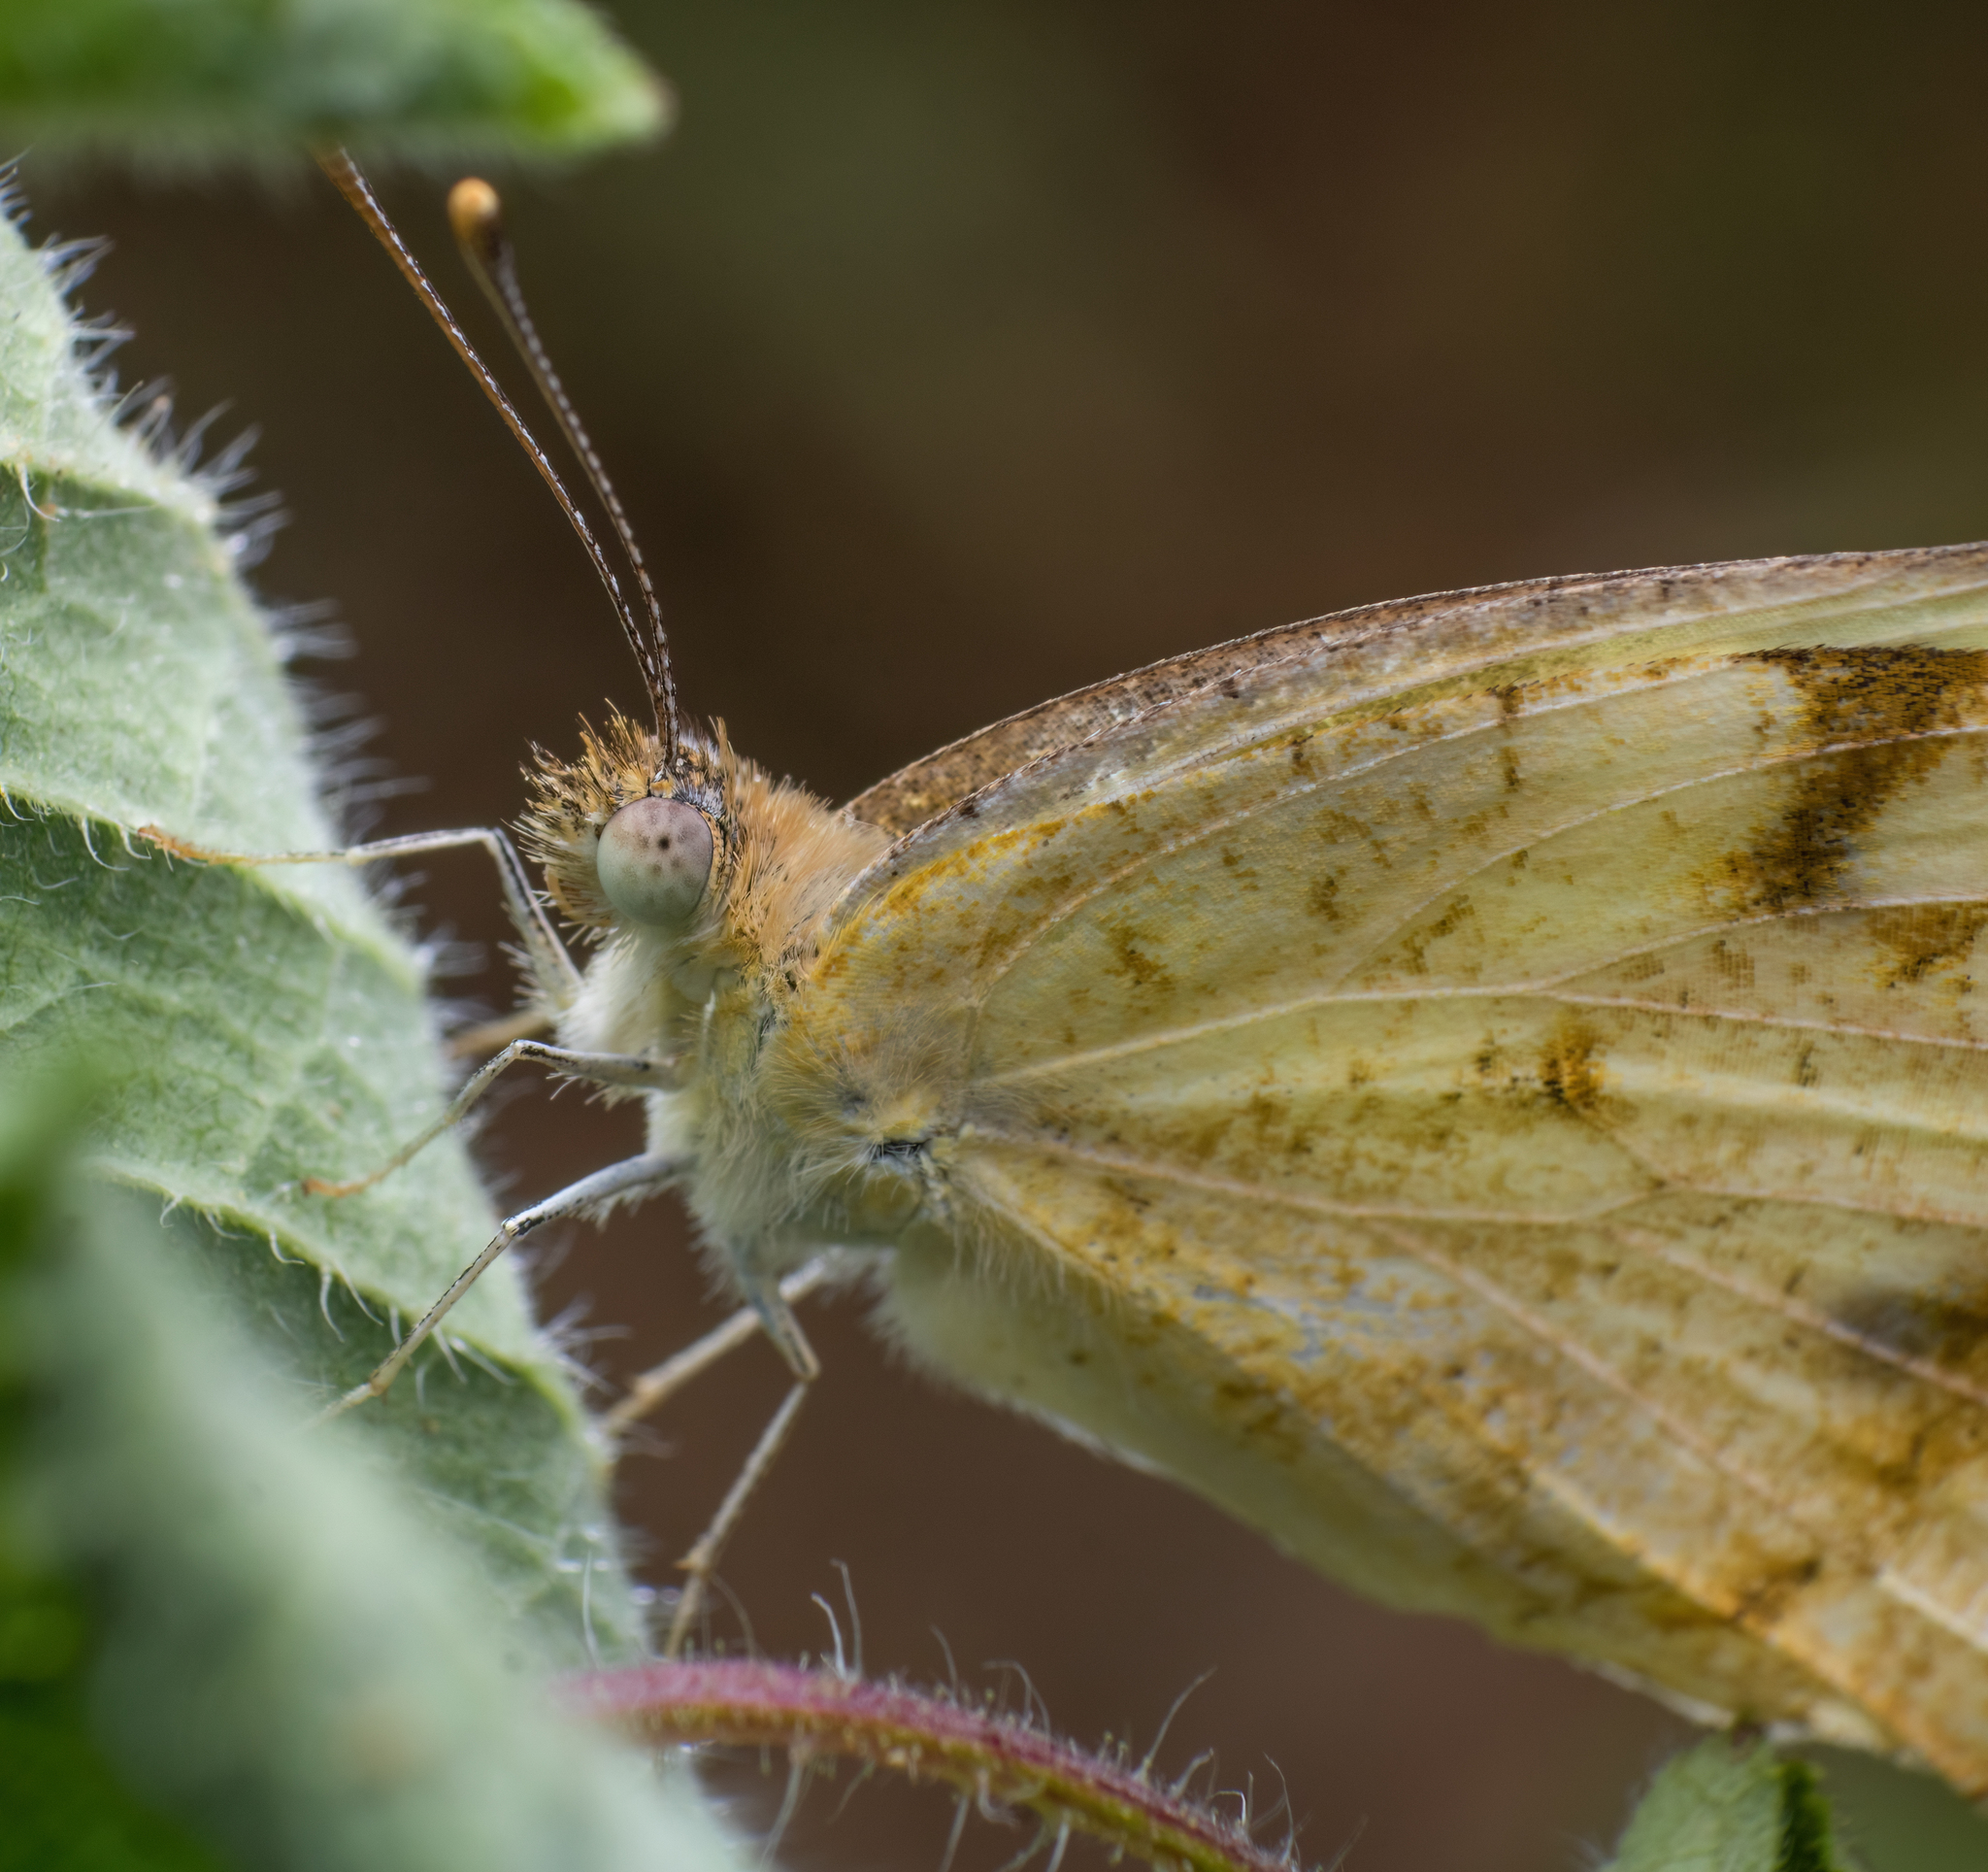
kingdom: Animalia
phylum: Arthropoda
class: Insecta
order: Lepidoptera
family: Pieridae
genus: Colotis
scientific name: Colotis aurora
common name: Plain orange-tip
